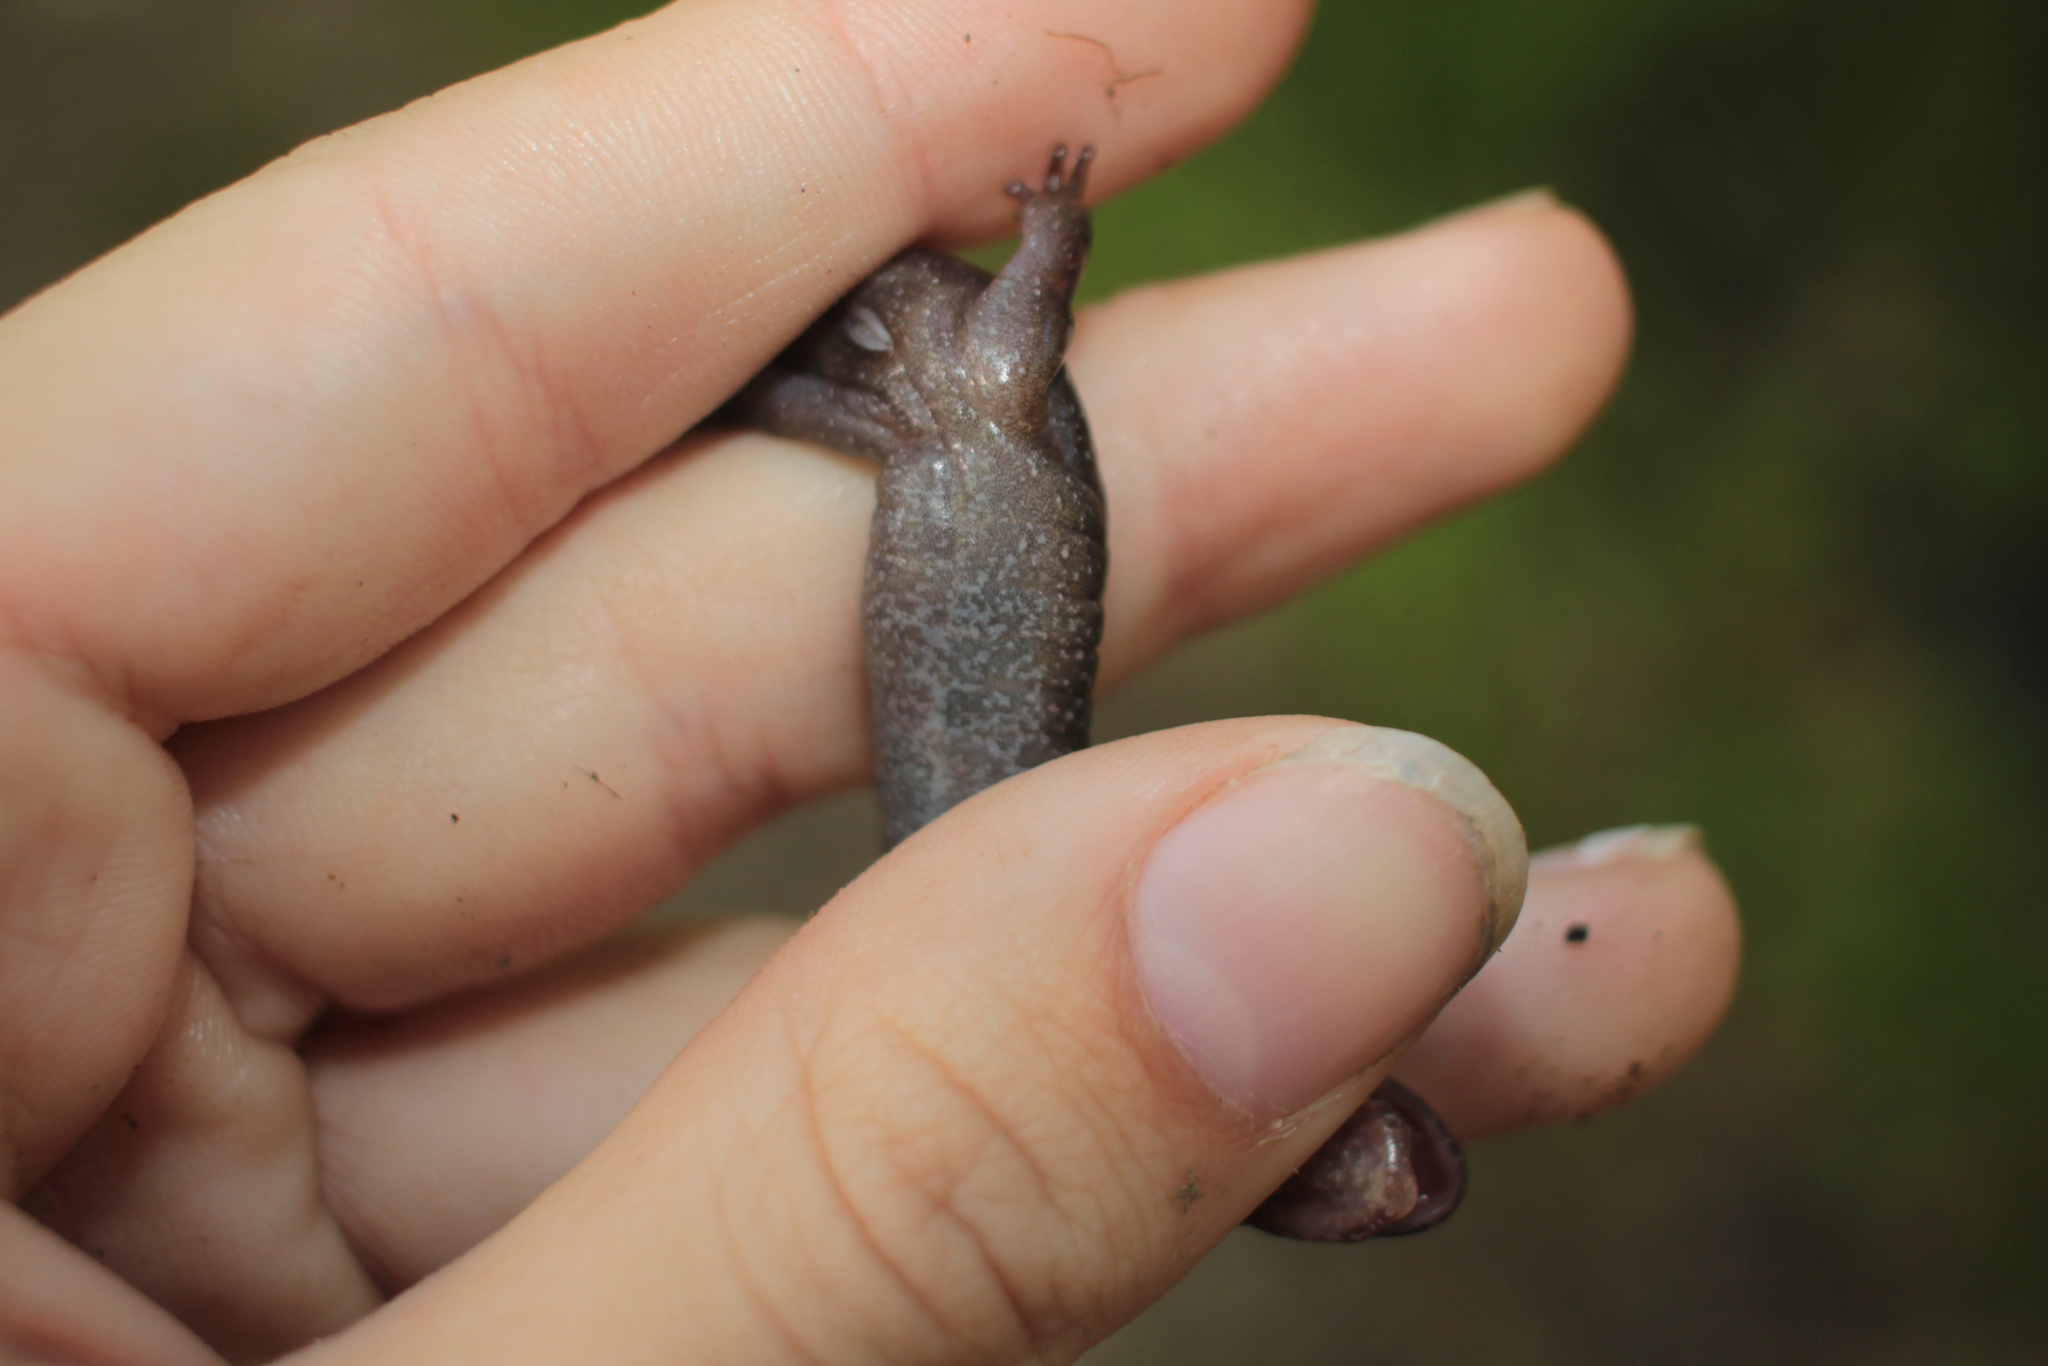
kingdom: Animalia
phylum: Chordata
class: Amphibia
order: Caudata
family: Plethodontidae
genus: Desmognathus
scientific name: Desmognathus adatsihi
